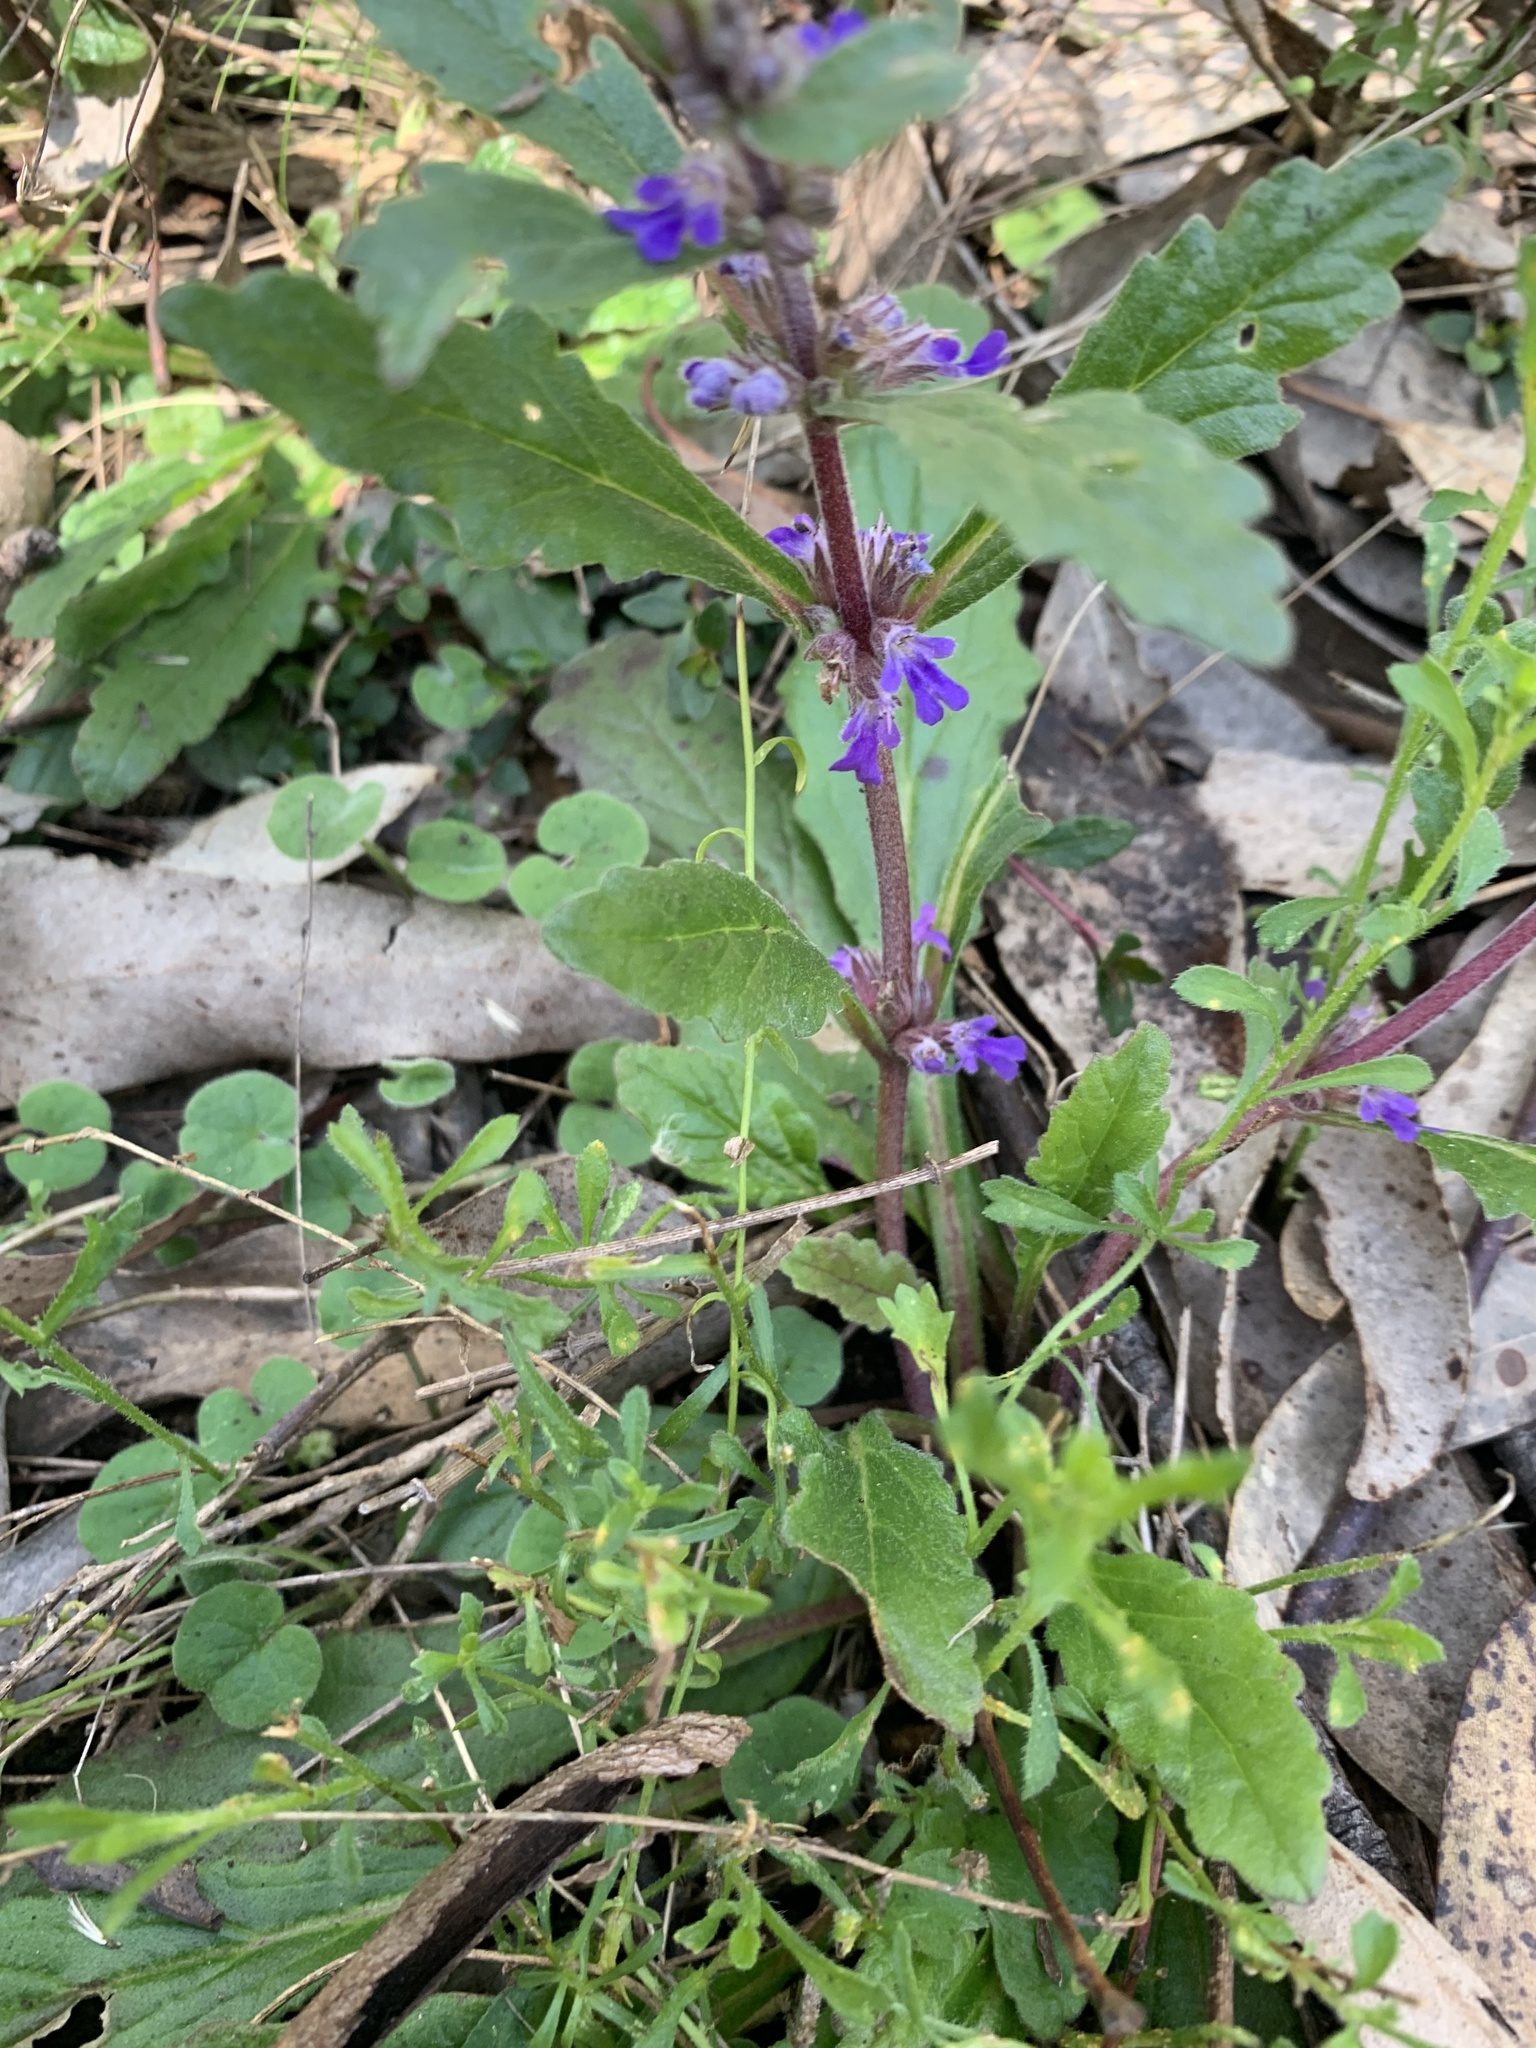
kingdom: Plantae
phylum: Tracheophyta
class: Magnoliopsida
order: Lamiales
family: Lamiaceae
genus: Ajuga
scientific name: Ajuga australis
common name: Australian bugle
